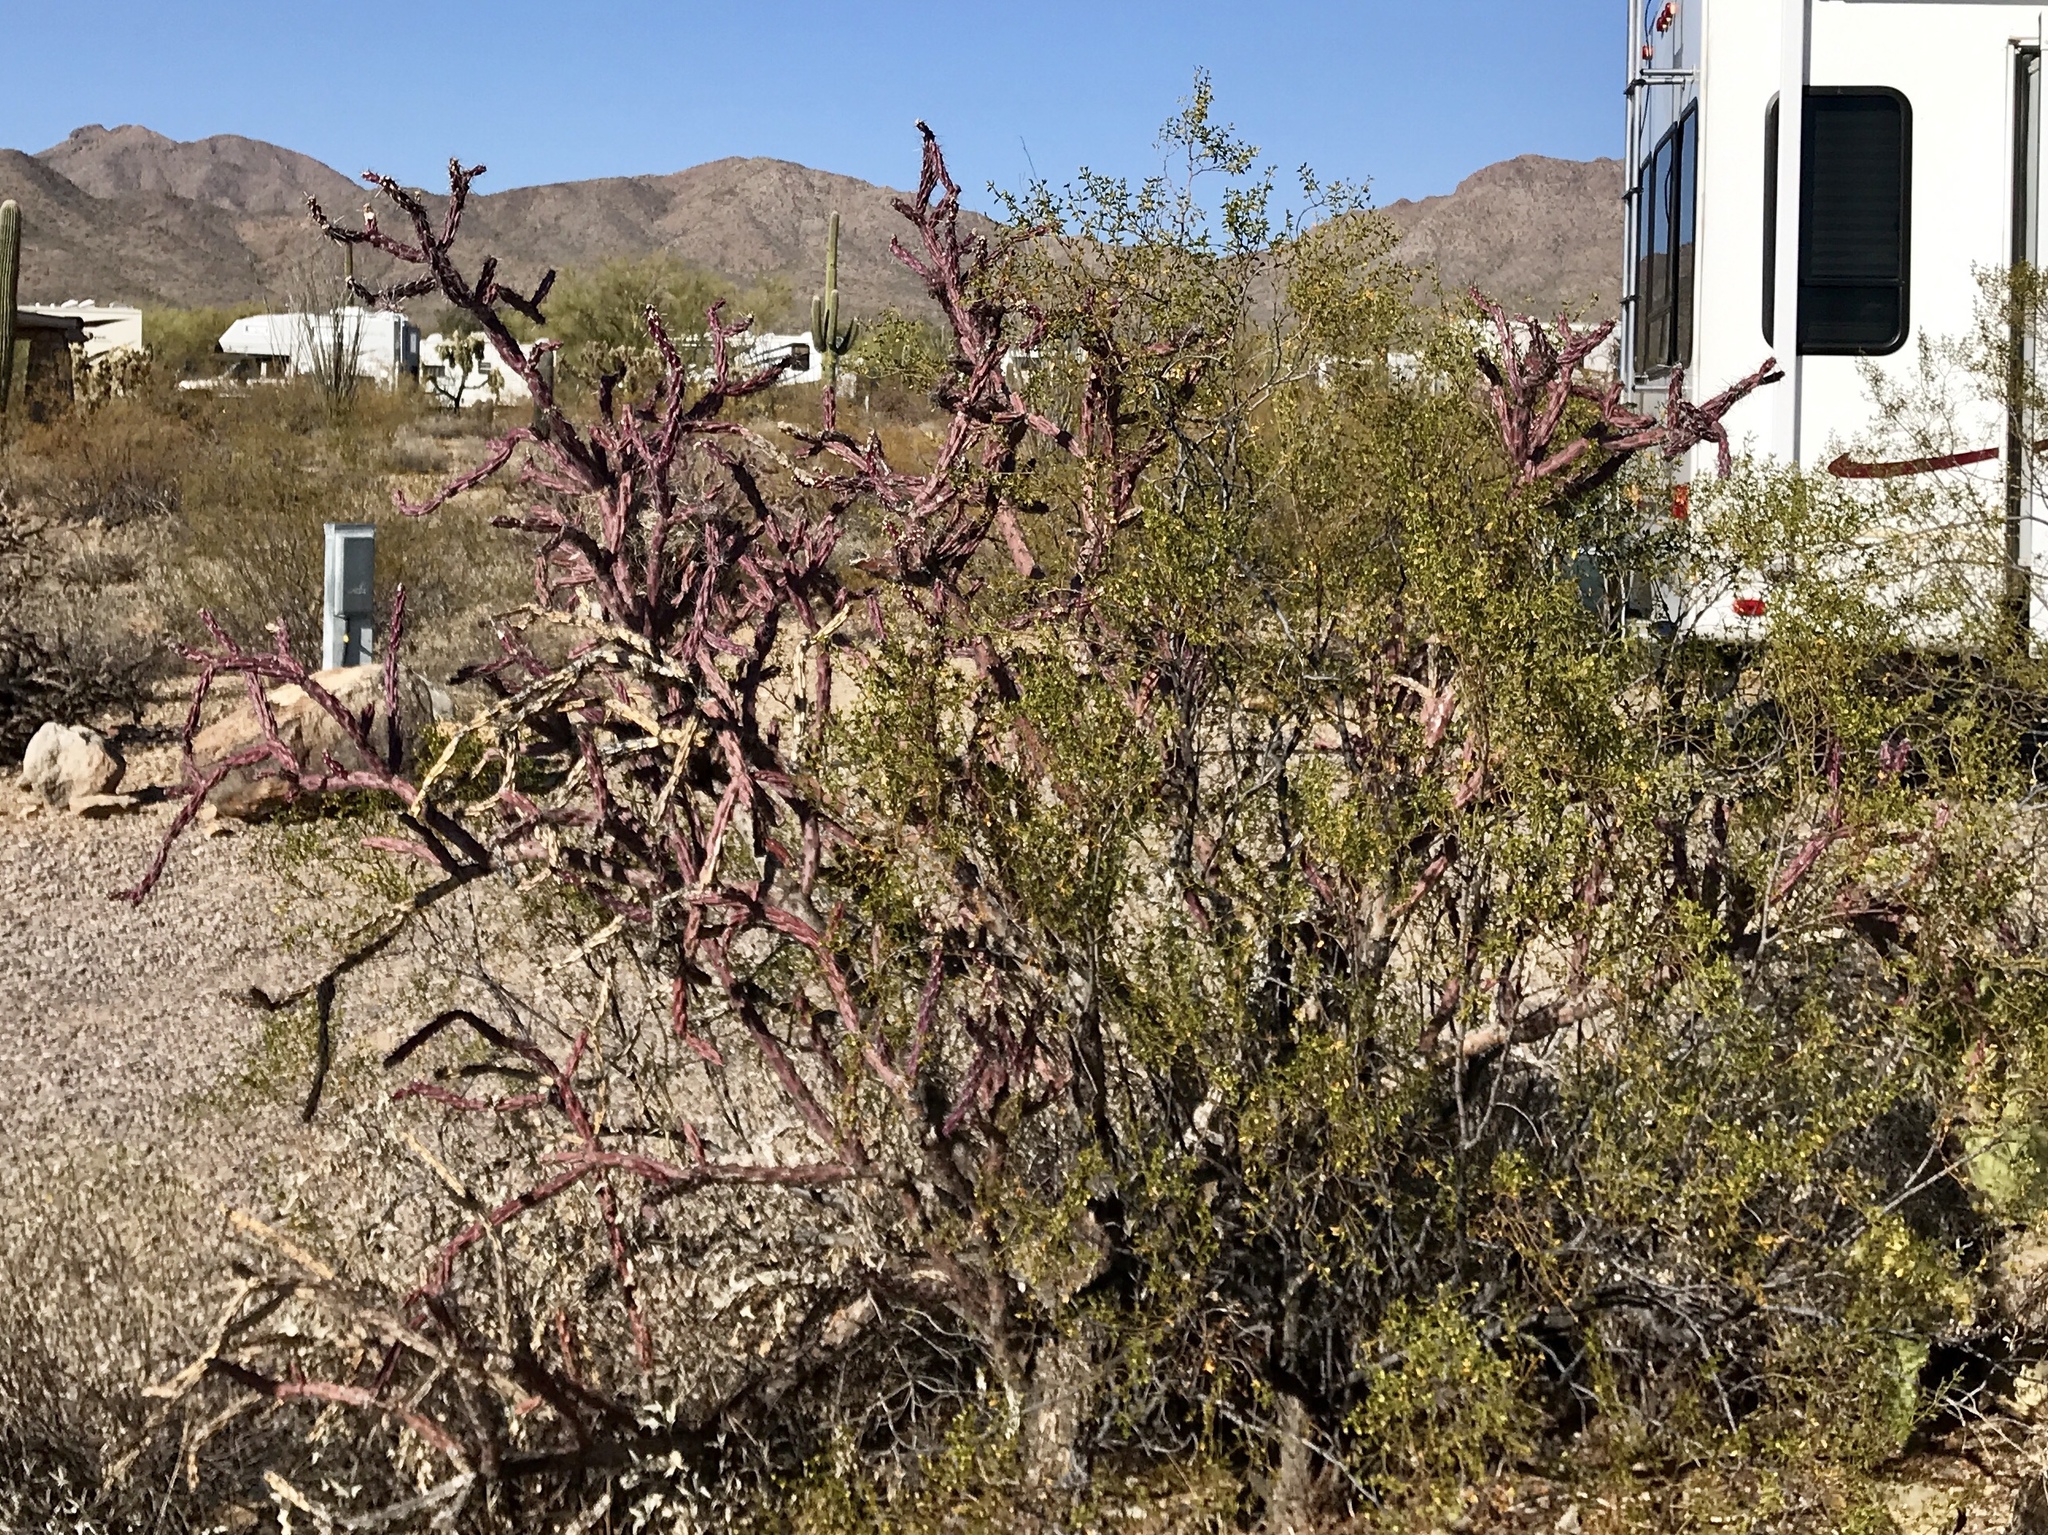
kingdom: Plantae
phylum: Tracheophyta
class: Magnoliopsida
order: Caryophyllales
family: Cactaceae
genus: Cylindropuntia
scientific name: Cylindropuntia thurberi
